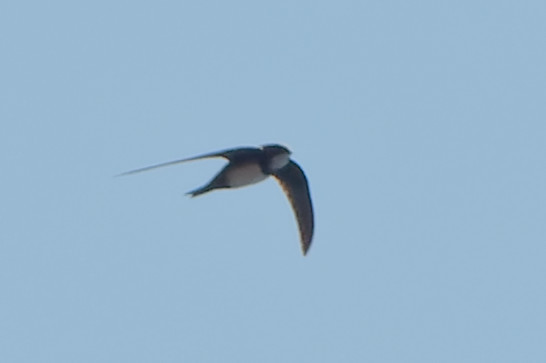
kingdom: Animalia
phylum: Chordata
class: Aves
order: Apodiformes
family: Apodidae
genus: Tachymarptis
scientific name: Tachymarptis melba
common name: Alpine swift
